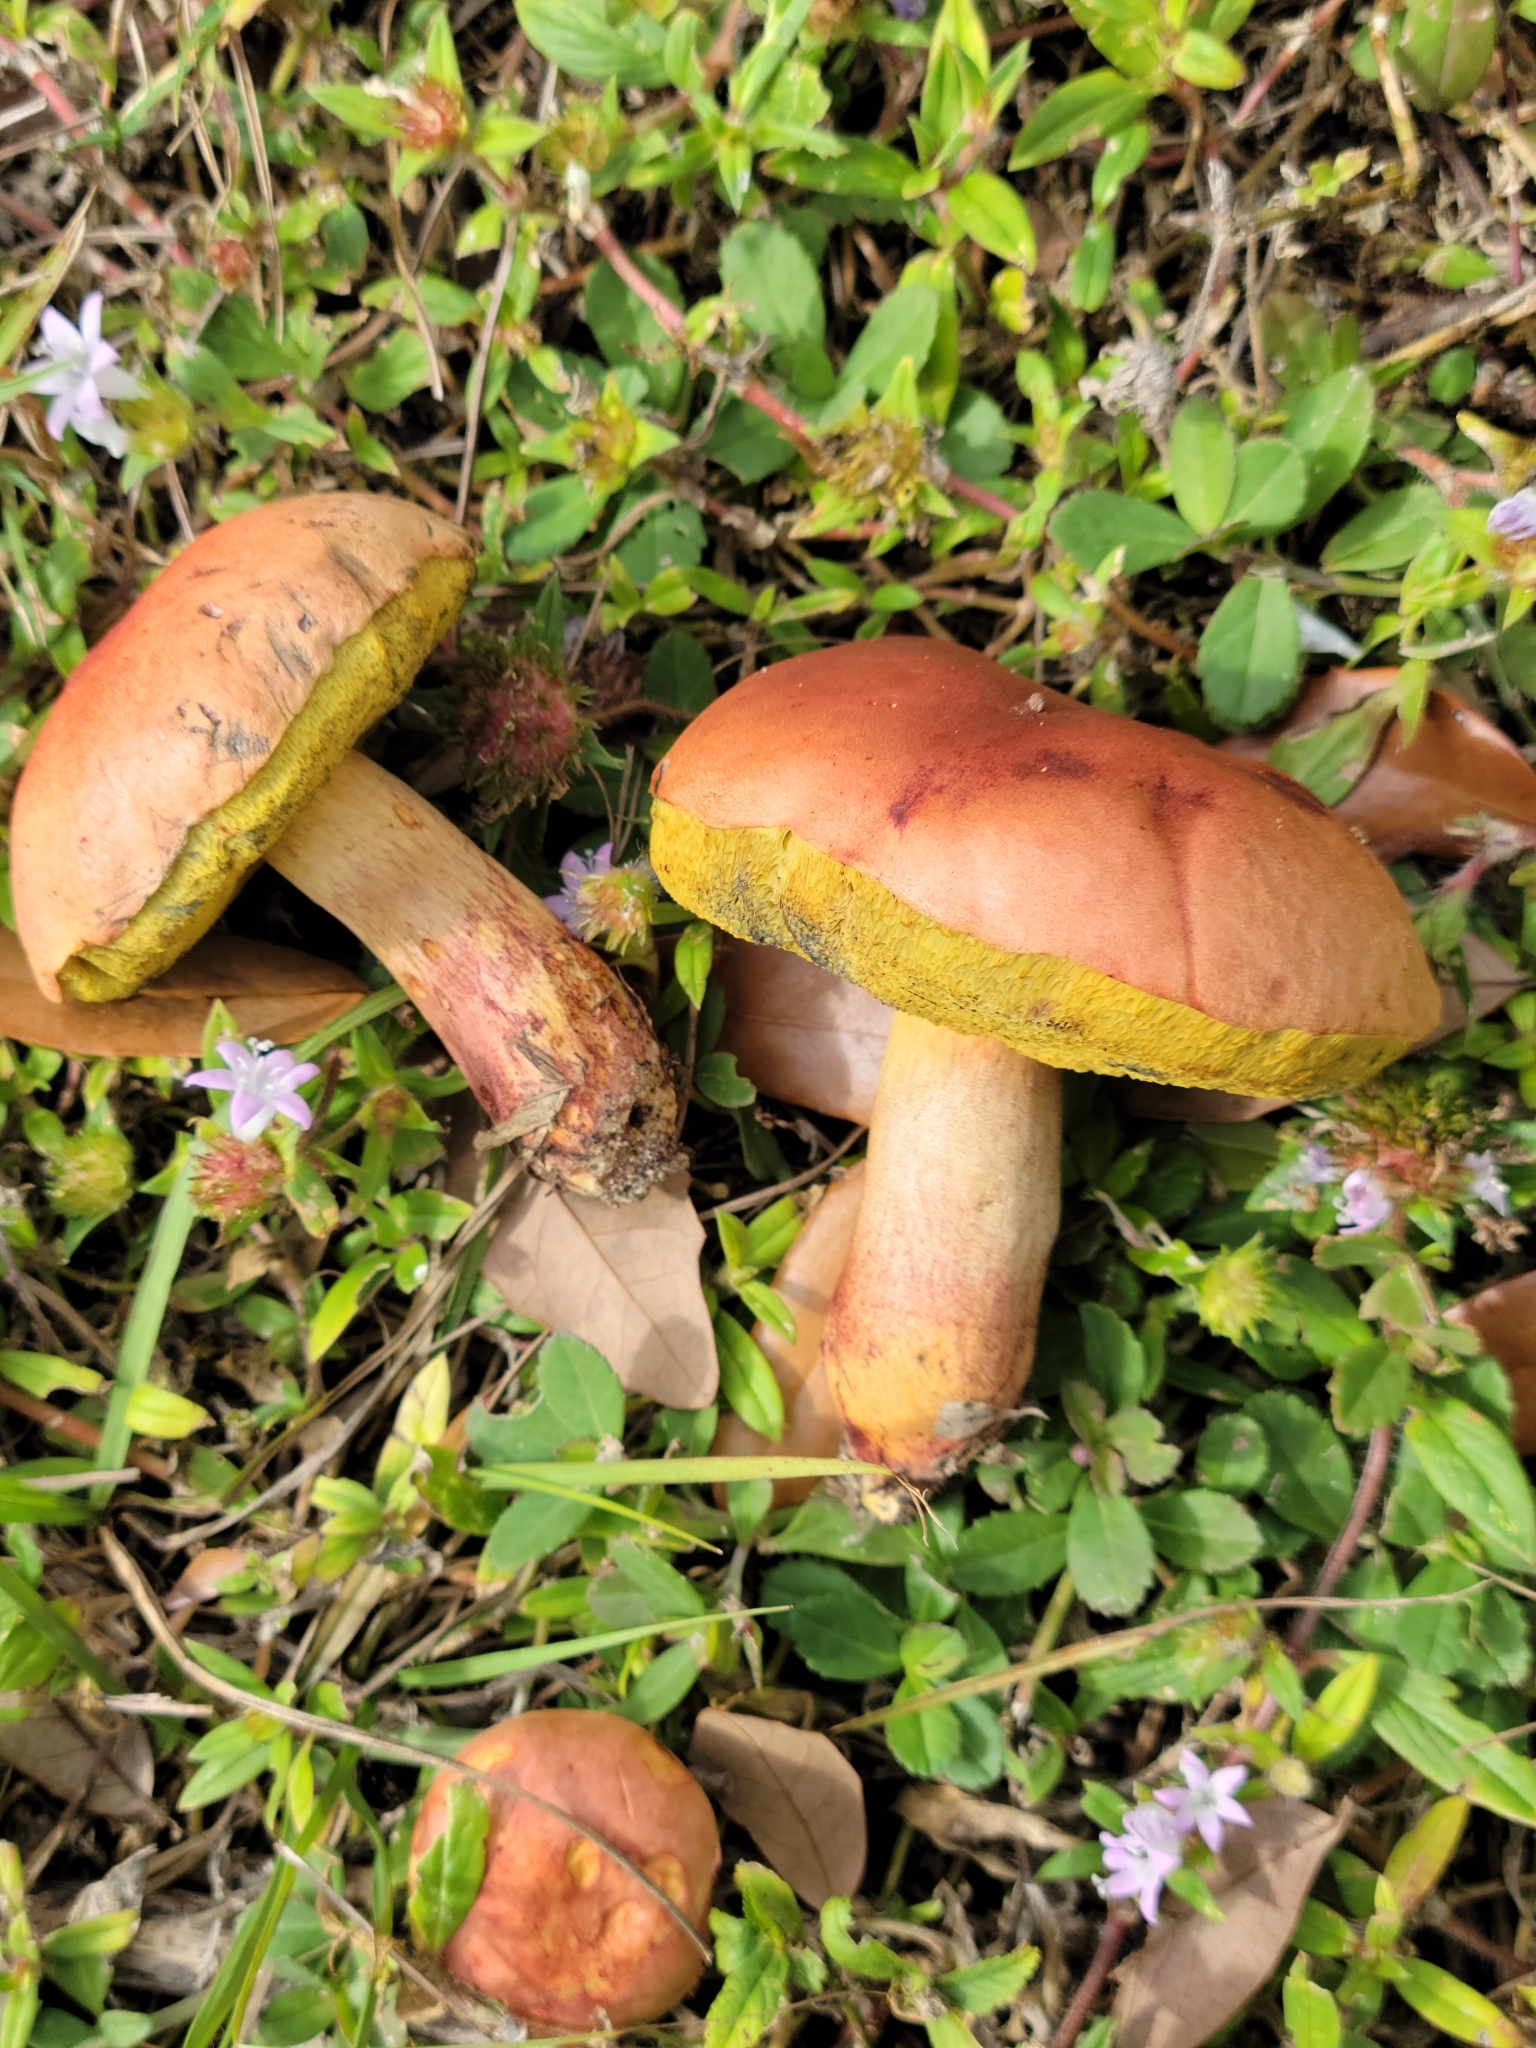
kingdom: Fungi
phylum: Basidiomycota
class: Agaricomycetes
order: Boletales
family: Boletaceae
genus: Pulchroboletus
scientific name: Pulchroboletus rubricitrinus
